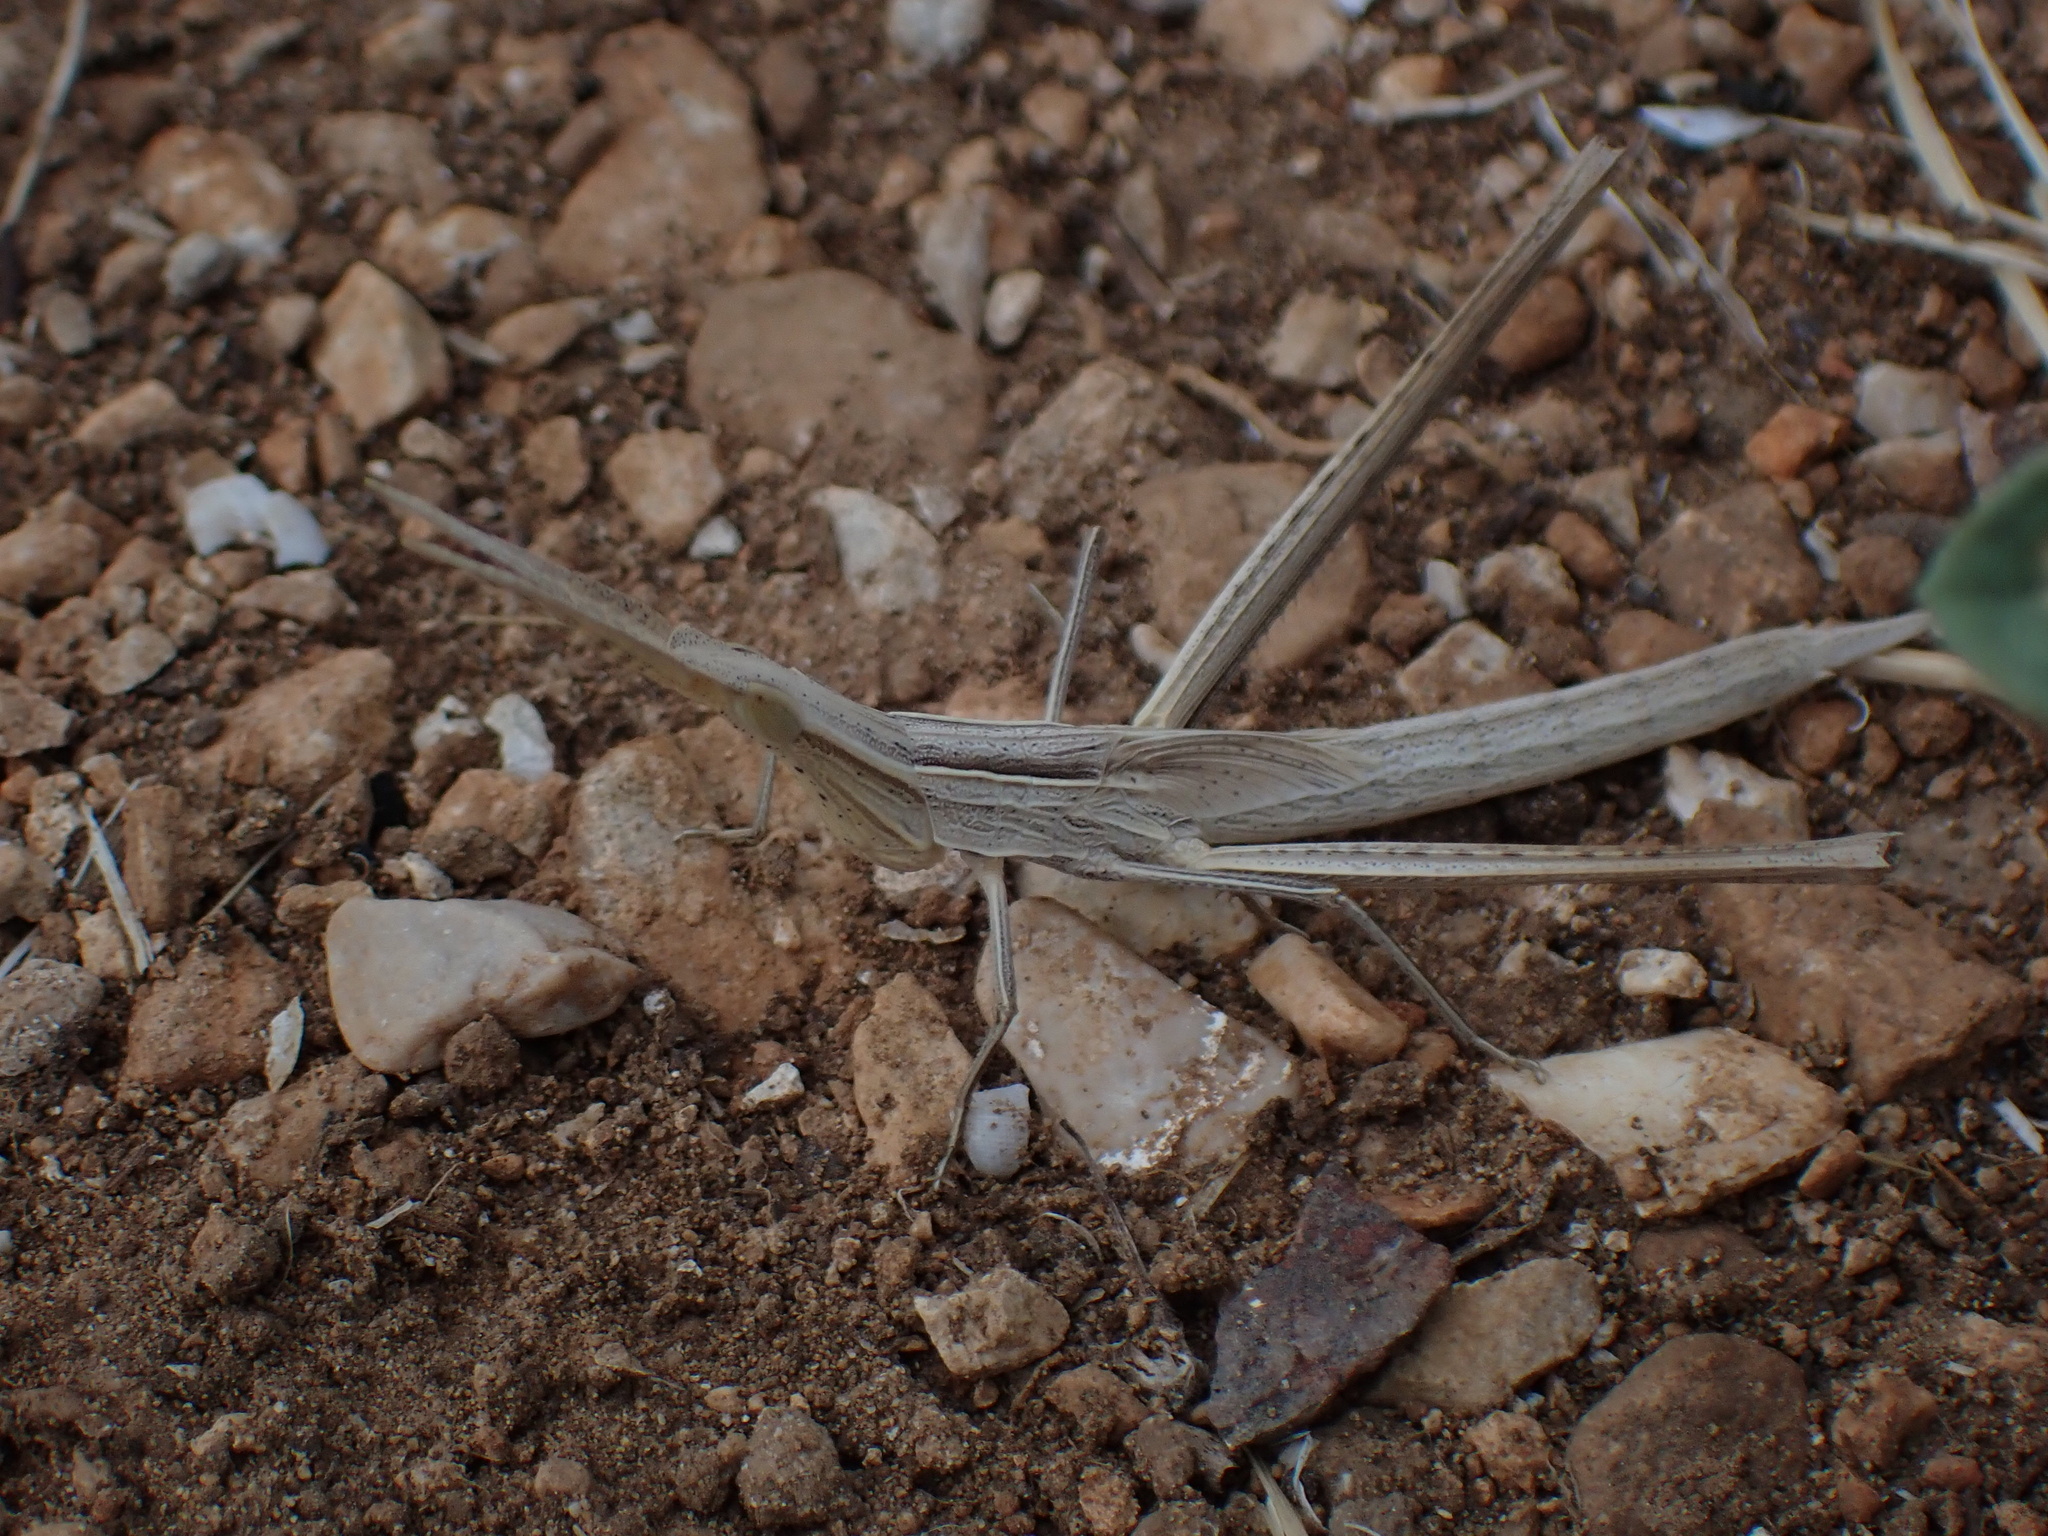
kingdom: Animalia
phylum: Arthropoda
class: Insecta
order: Orthoptera
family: Acrididae
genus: Acrida
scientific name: Acrida ungarica
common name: Common cone-headed grasshopper
